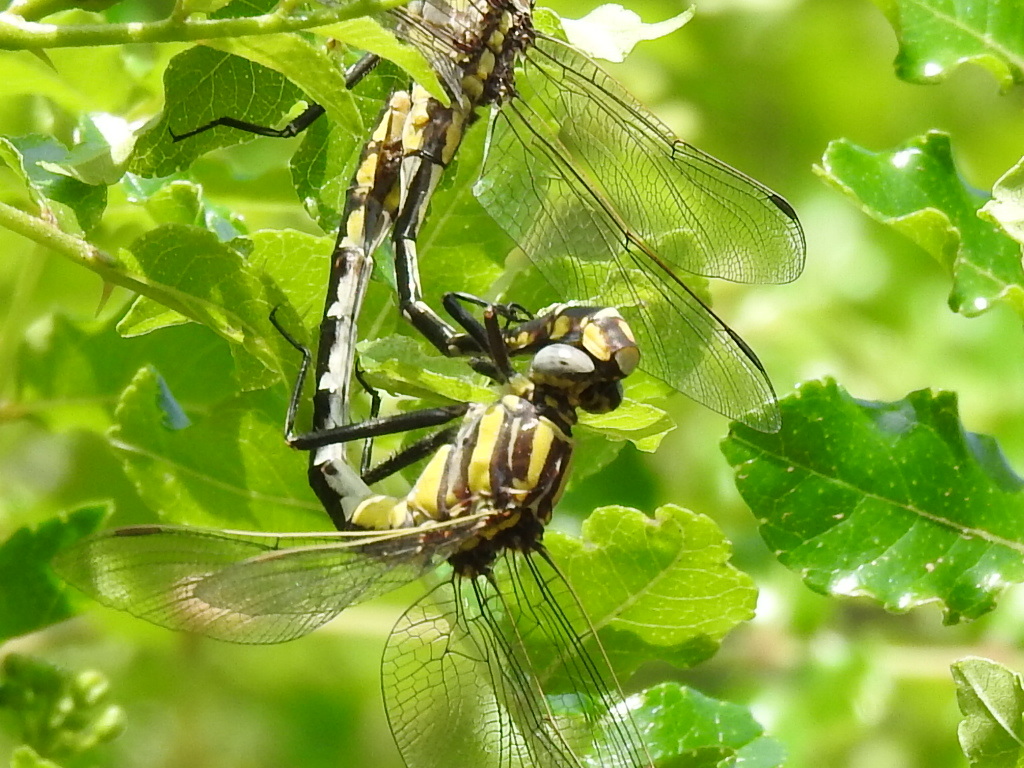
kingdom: Animalia
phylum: Arthropoda
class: Insecta
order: Odonata
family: Gomphidae
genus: Gomphurus
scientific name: Gomphurus externus
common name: Plains clubtail
